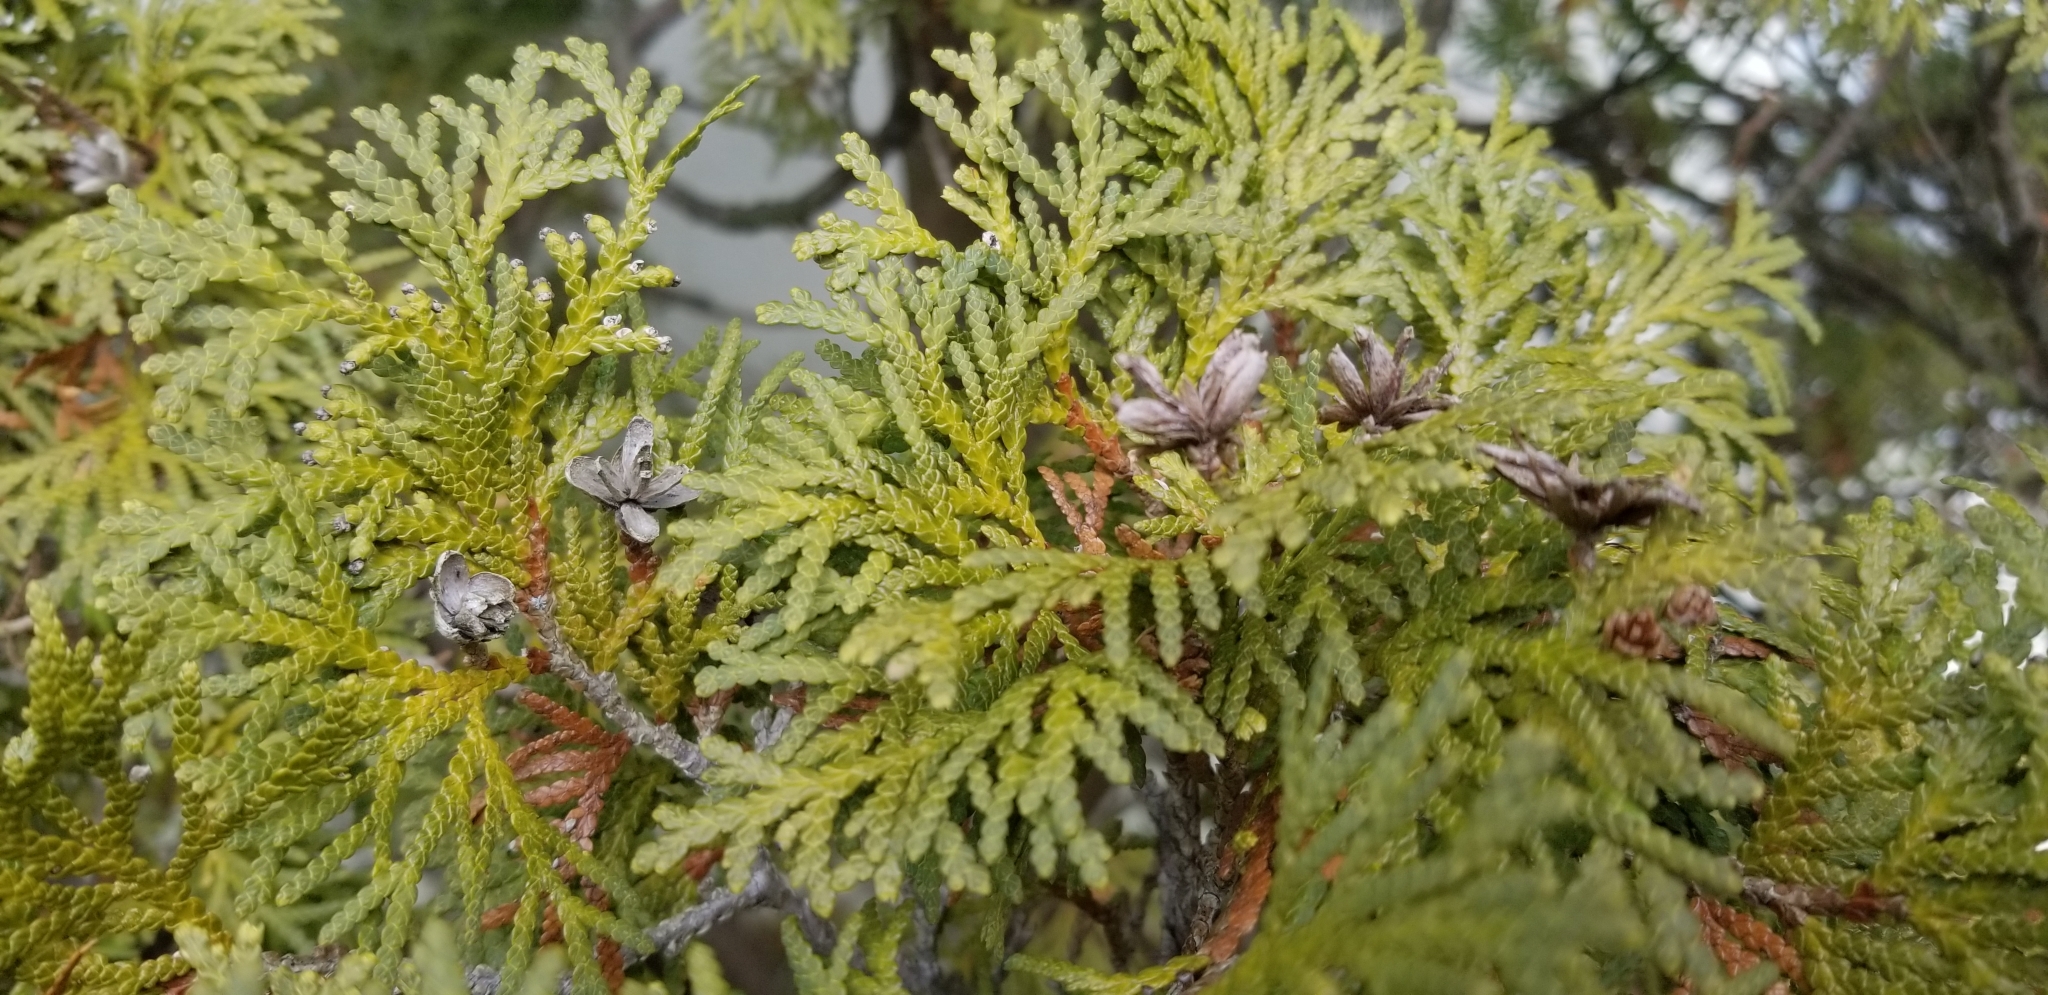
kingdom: Plantae
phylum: Tracheophyta
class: Pinopsida
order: Pinales
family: Cupressaceae
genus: Thuja
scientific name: Thuja occidentalis
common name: Northern white-cedar
